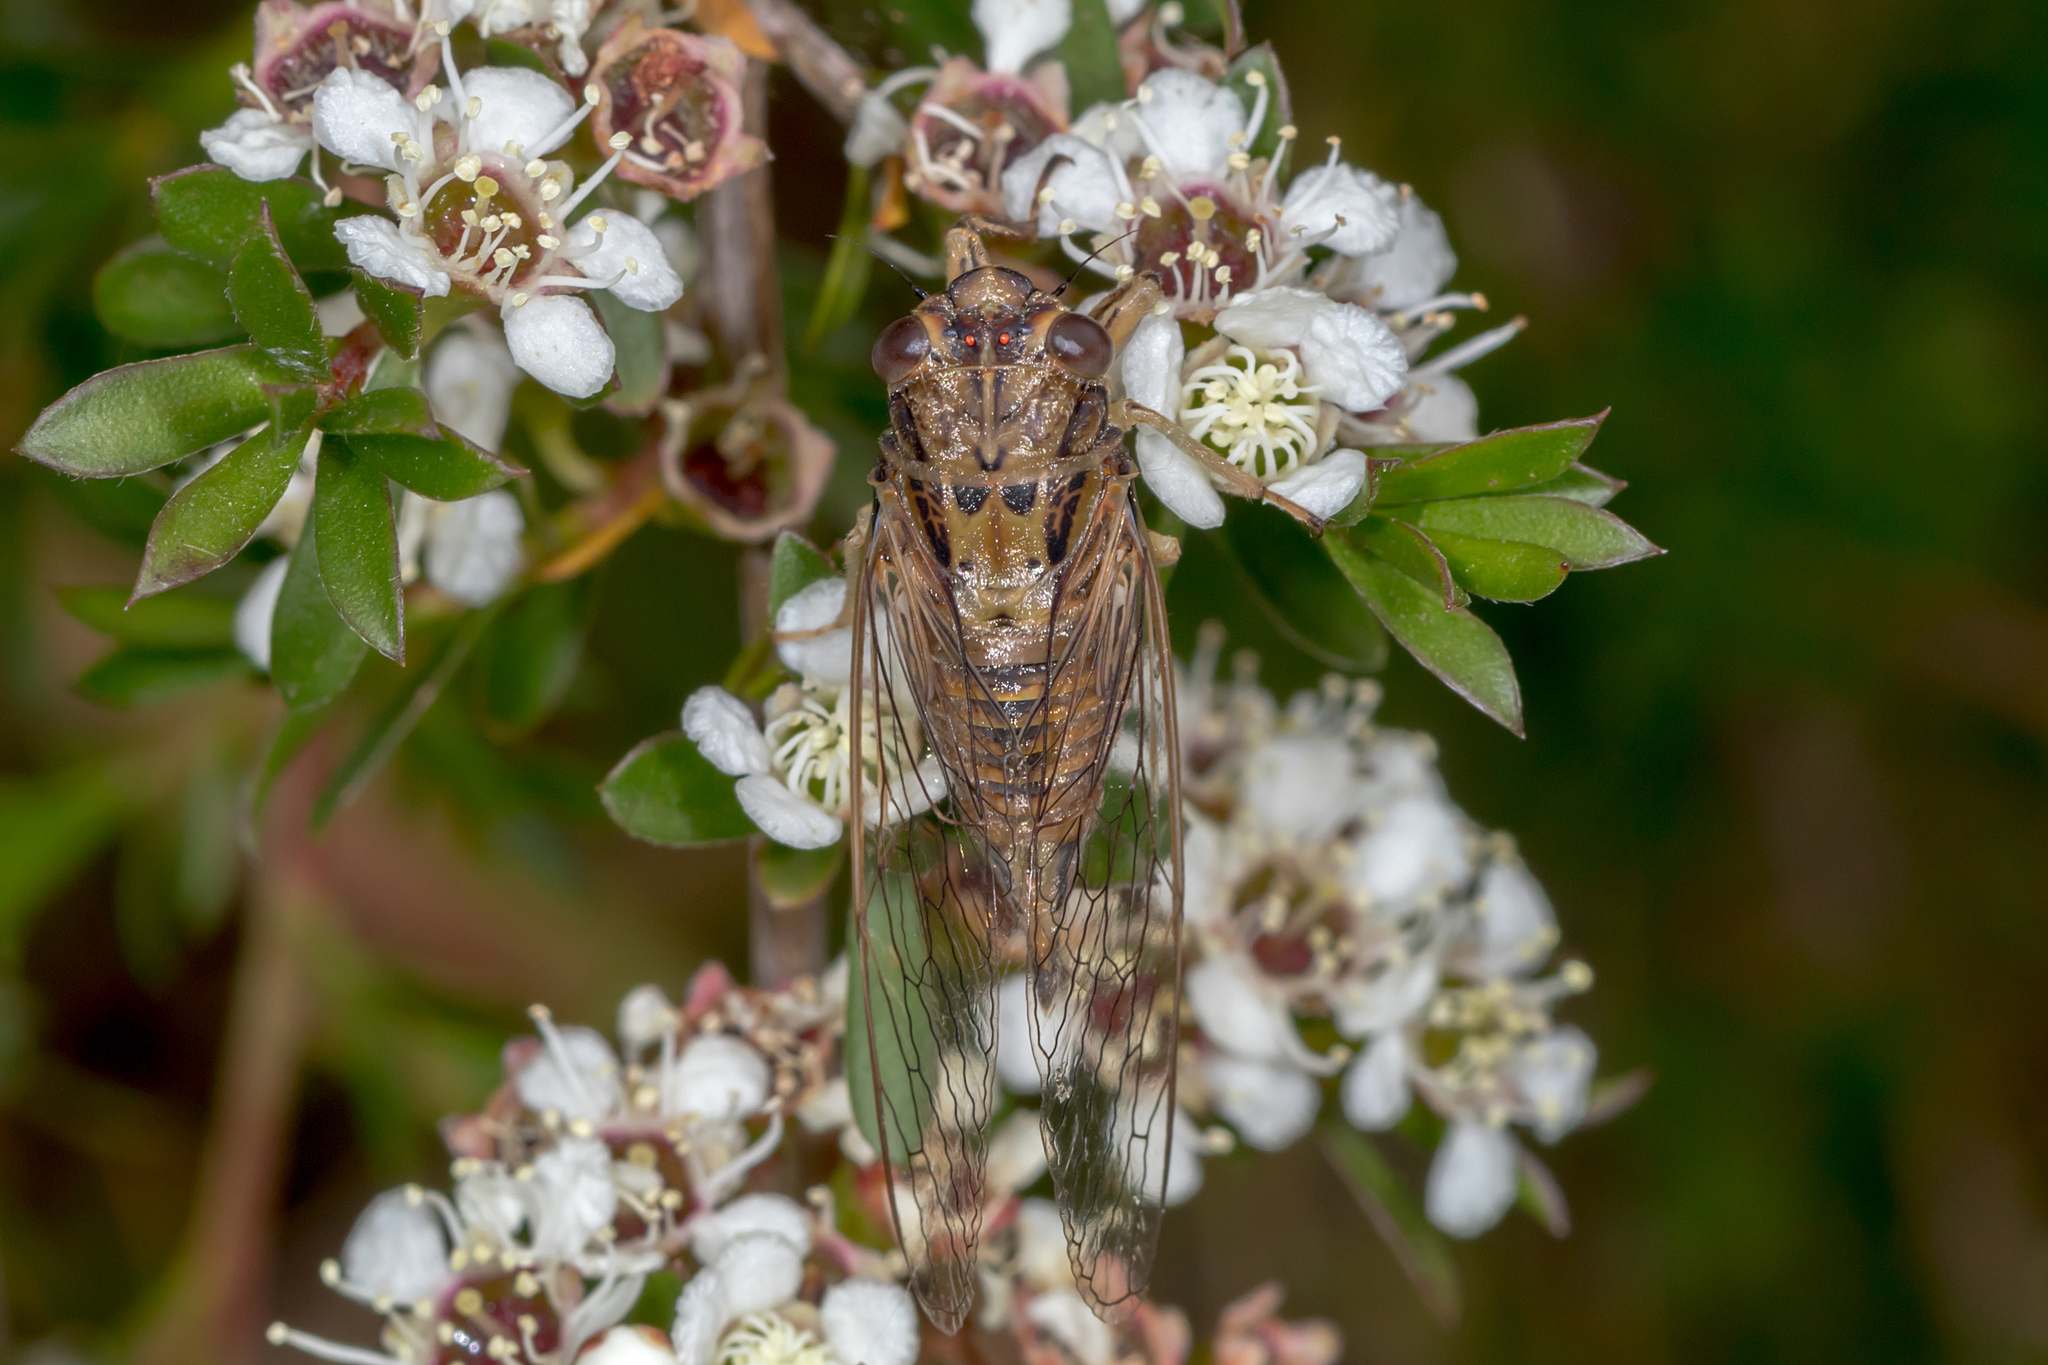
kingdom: Animalia
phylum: Arthropoda
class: Insecta
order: Hemiptera
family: Cicadidae
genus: Yoyetta
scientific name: Yoyetta celis
